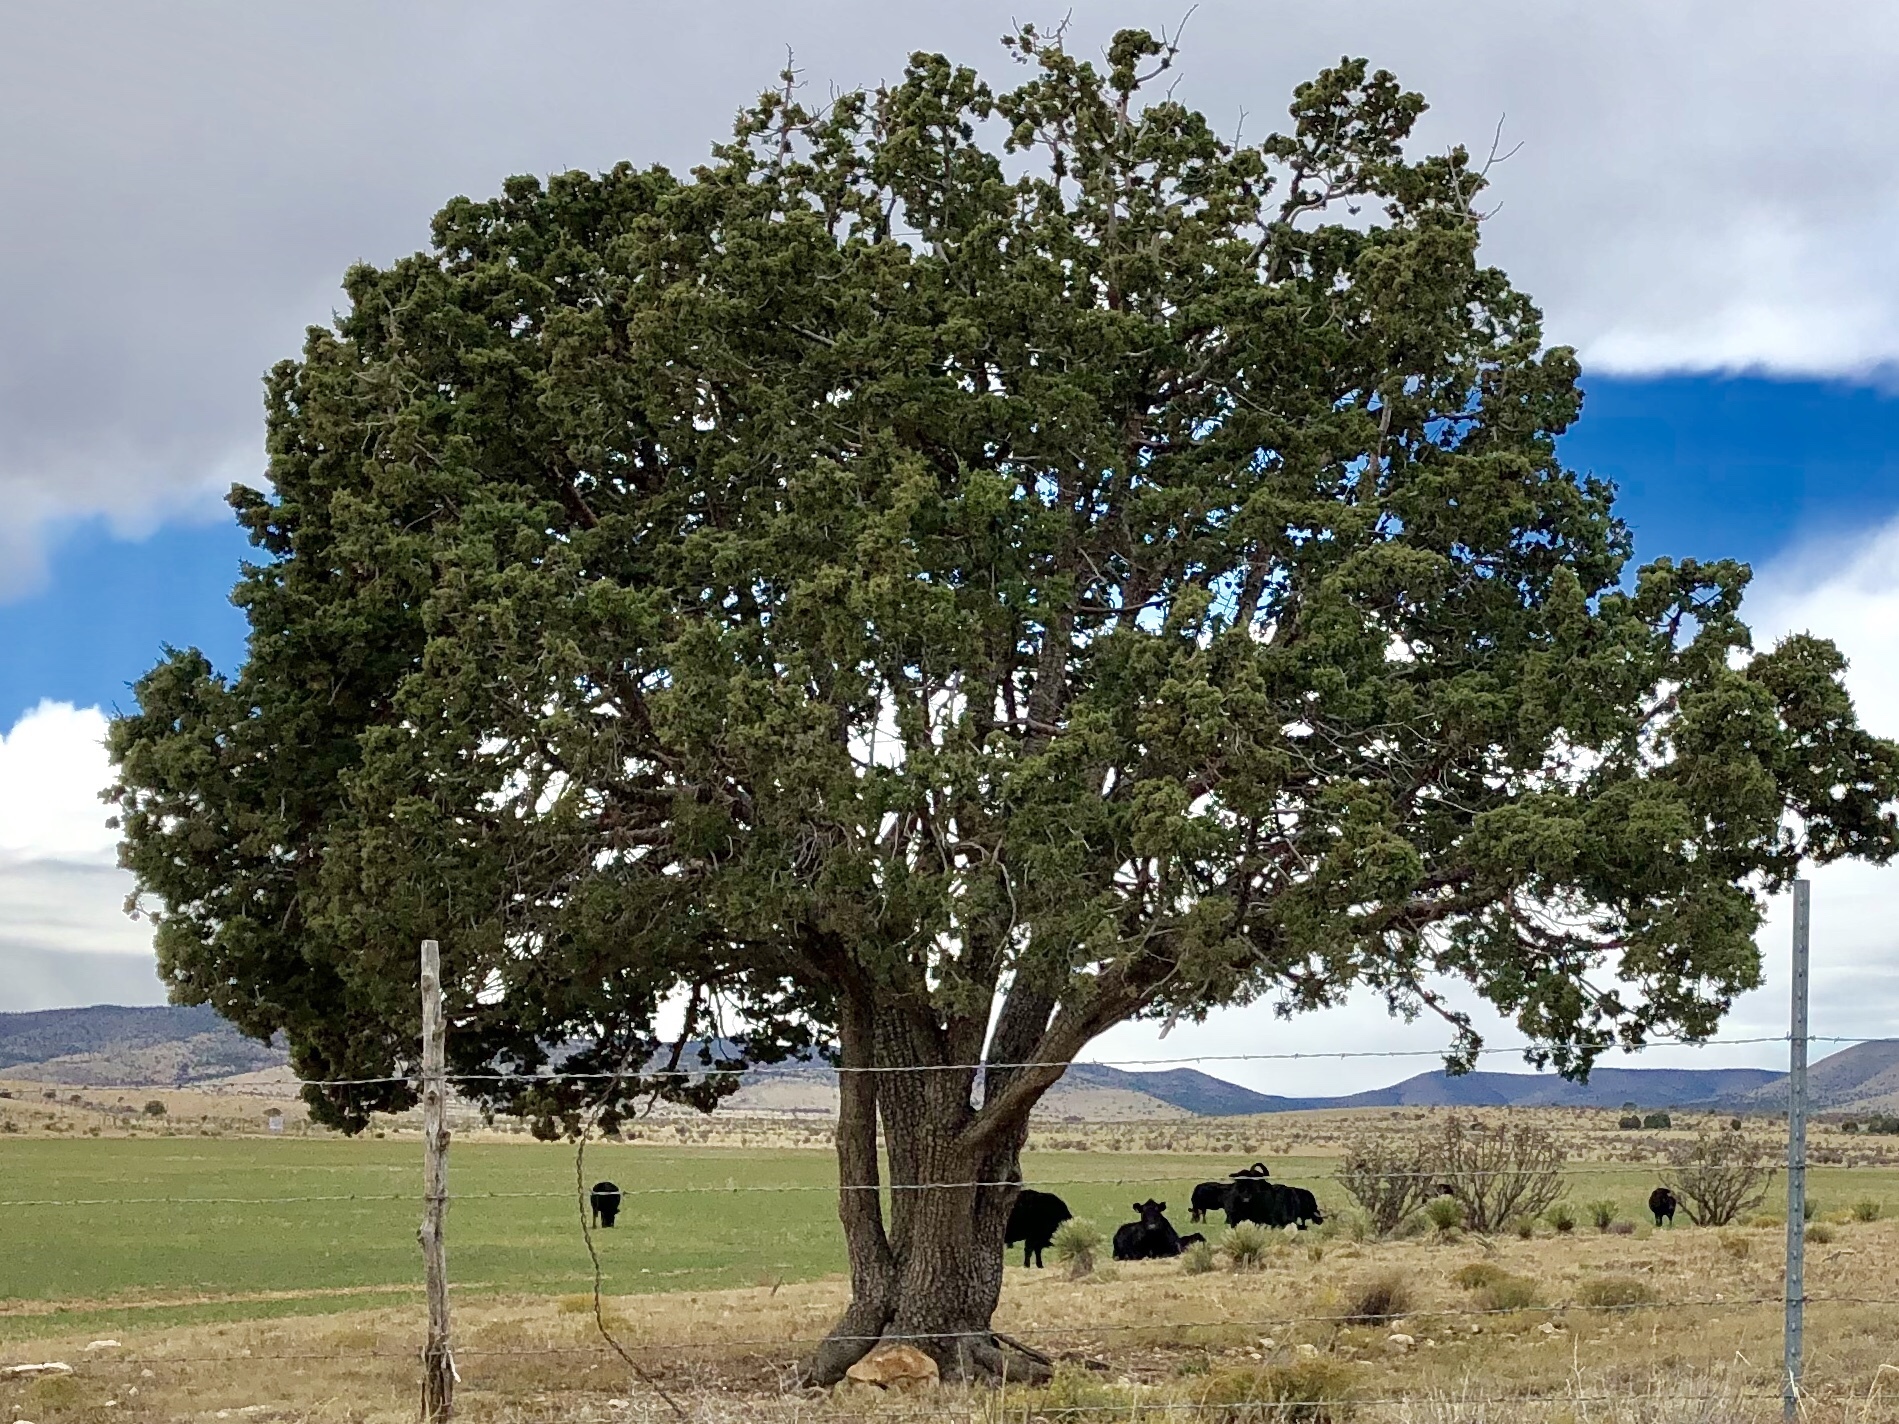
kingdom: Plantae
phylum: Tracheophyta
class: Pinopsida
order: Pinales
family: Cupressaceae
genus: Juniperus
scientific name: Juniperus deppeana
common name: Alligator juniper
